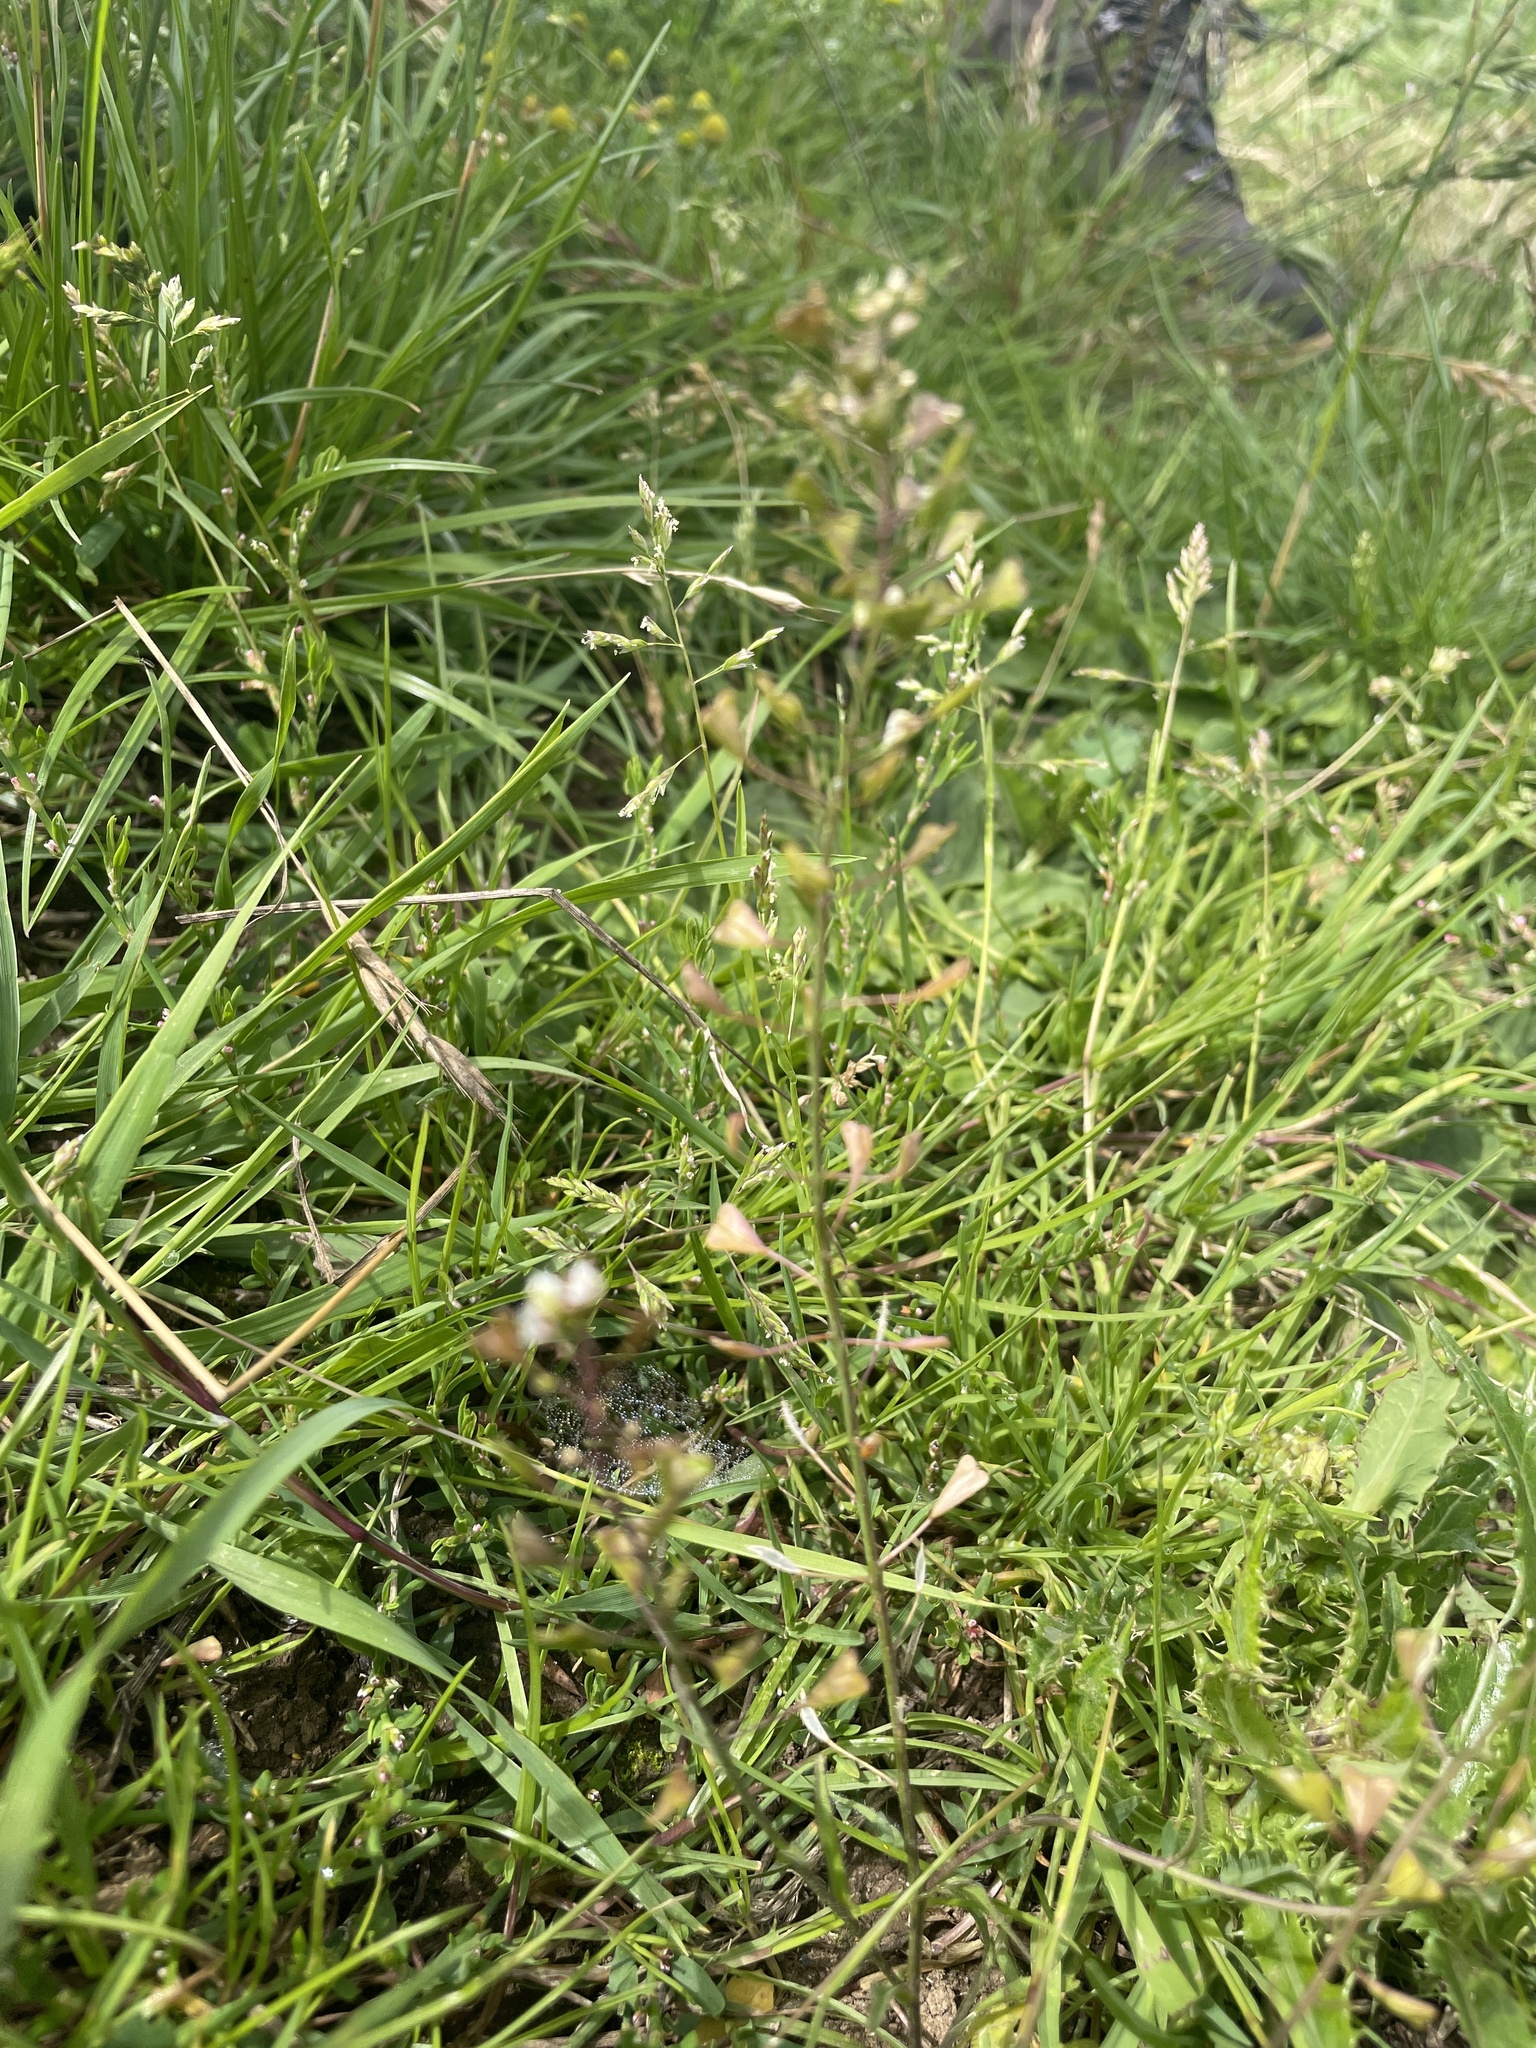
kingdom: Plantae
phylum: Tracheophyta
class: Magnoliopsida
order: Brassicales
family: Brassicaceae
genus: Capsella
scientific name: Capsella bursa-pastoris
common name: Shepherd's purse
